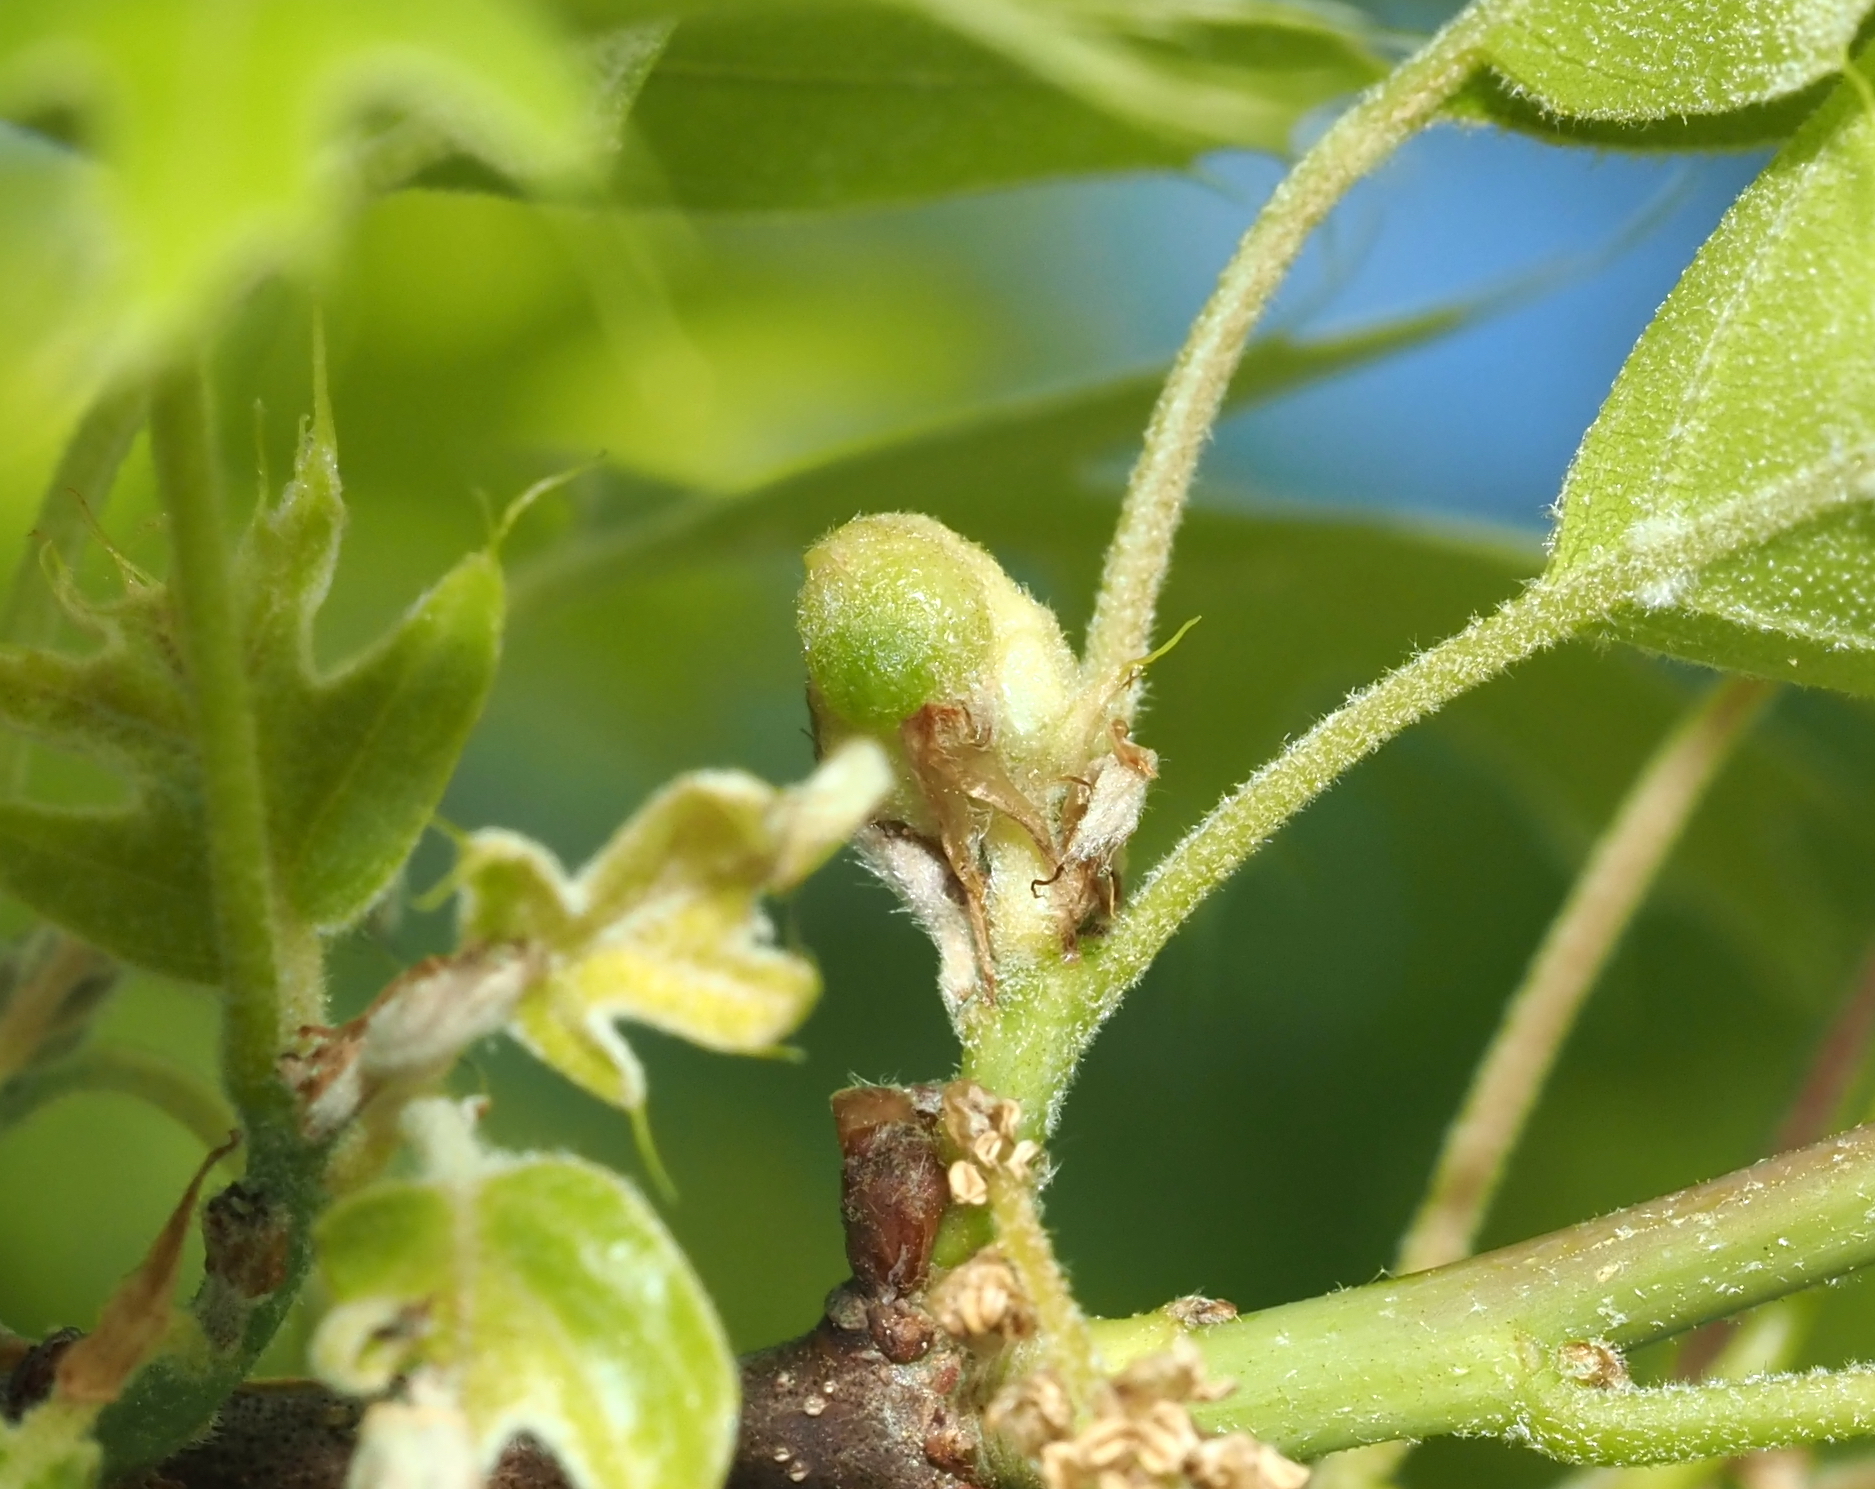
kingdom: Animalia
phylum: Arthropoda
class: Insecta
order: Hymenoptera
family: Cynipidae
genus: Dryocosmus
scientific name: Dryocosmus quercuspalustris
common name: Succulent oak gall wasp
